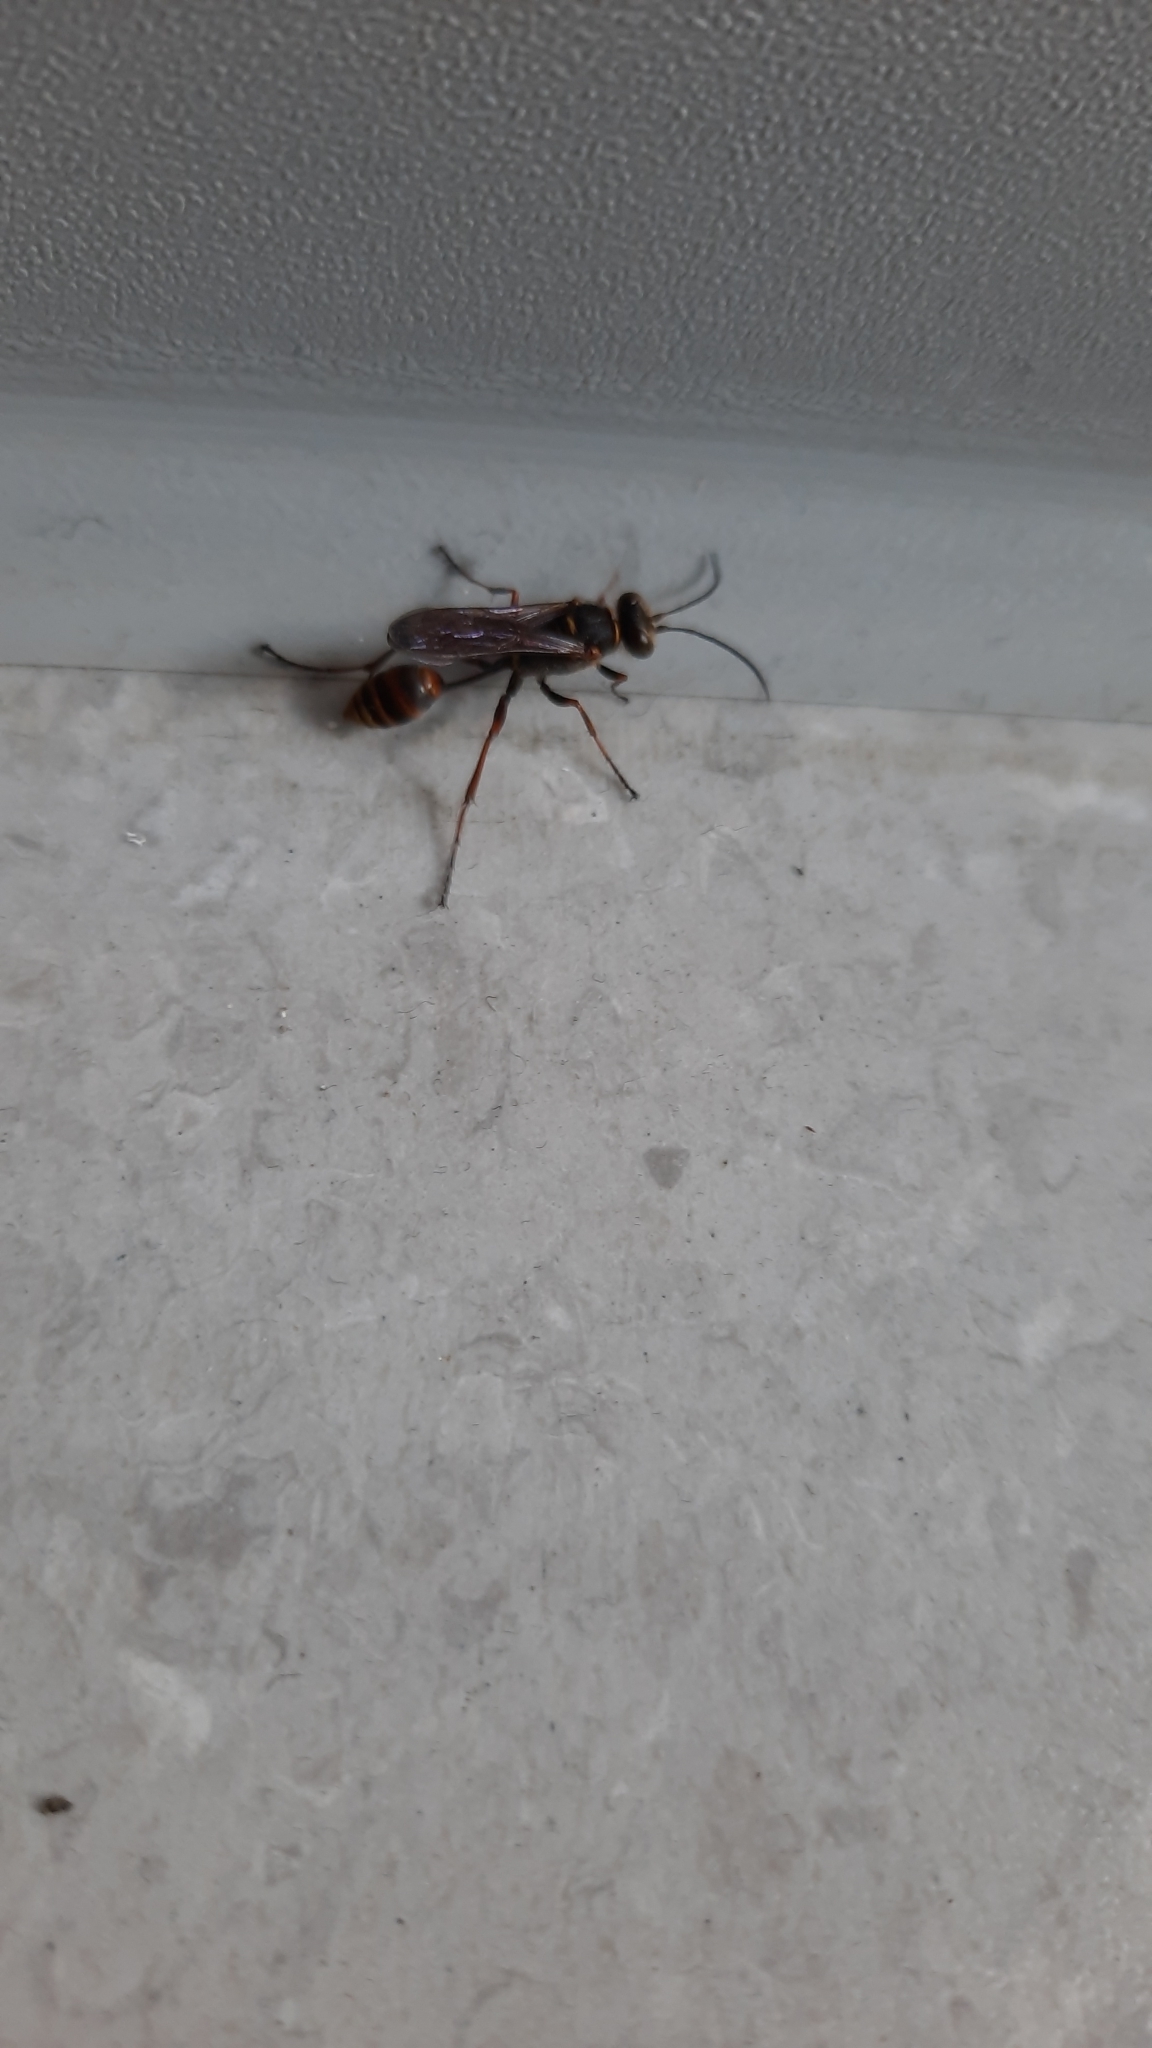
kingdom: Animalia
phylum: Arthropoda
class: Insecta
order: Hymenoptera
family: Sphecidae
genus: Sceliphron
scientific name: Sceliphron curvatum
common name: Pèlopèe
